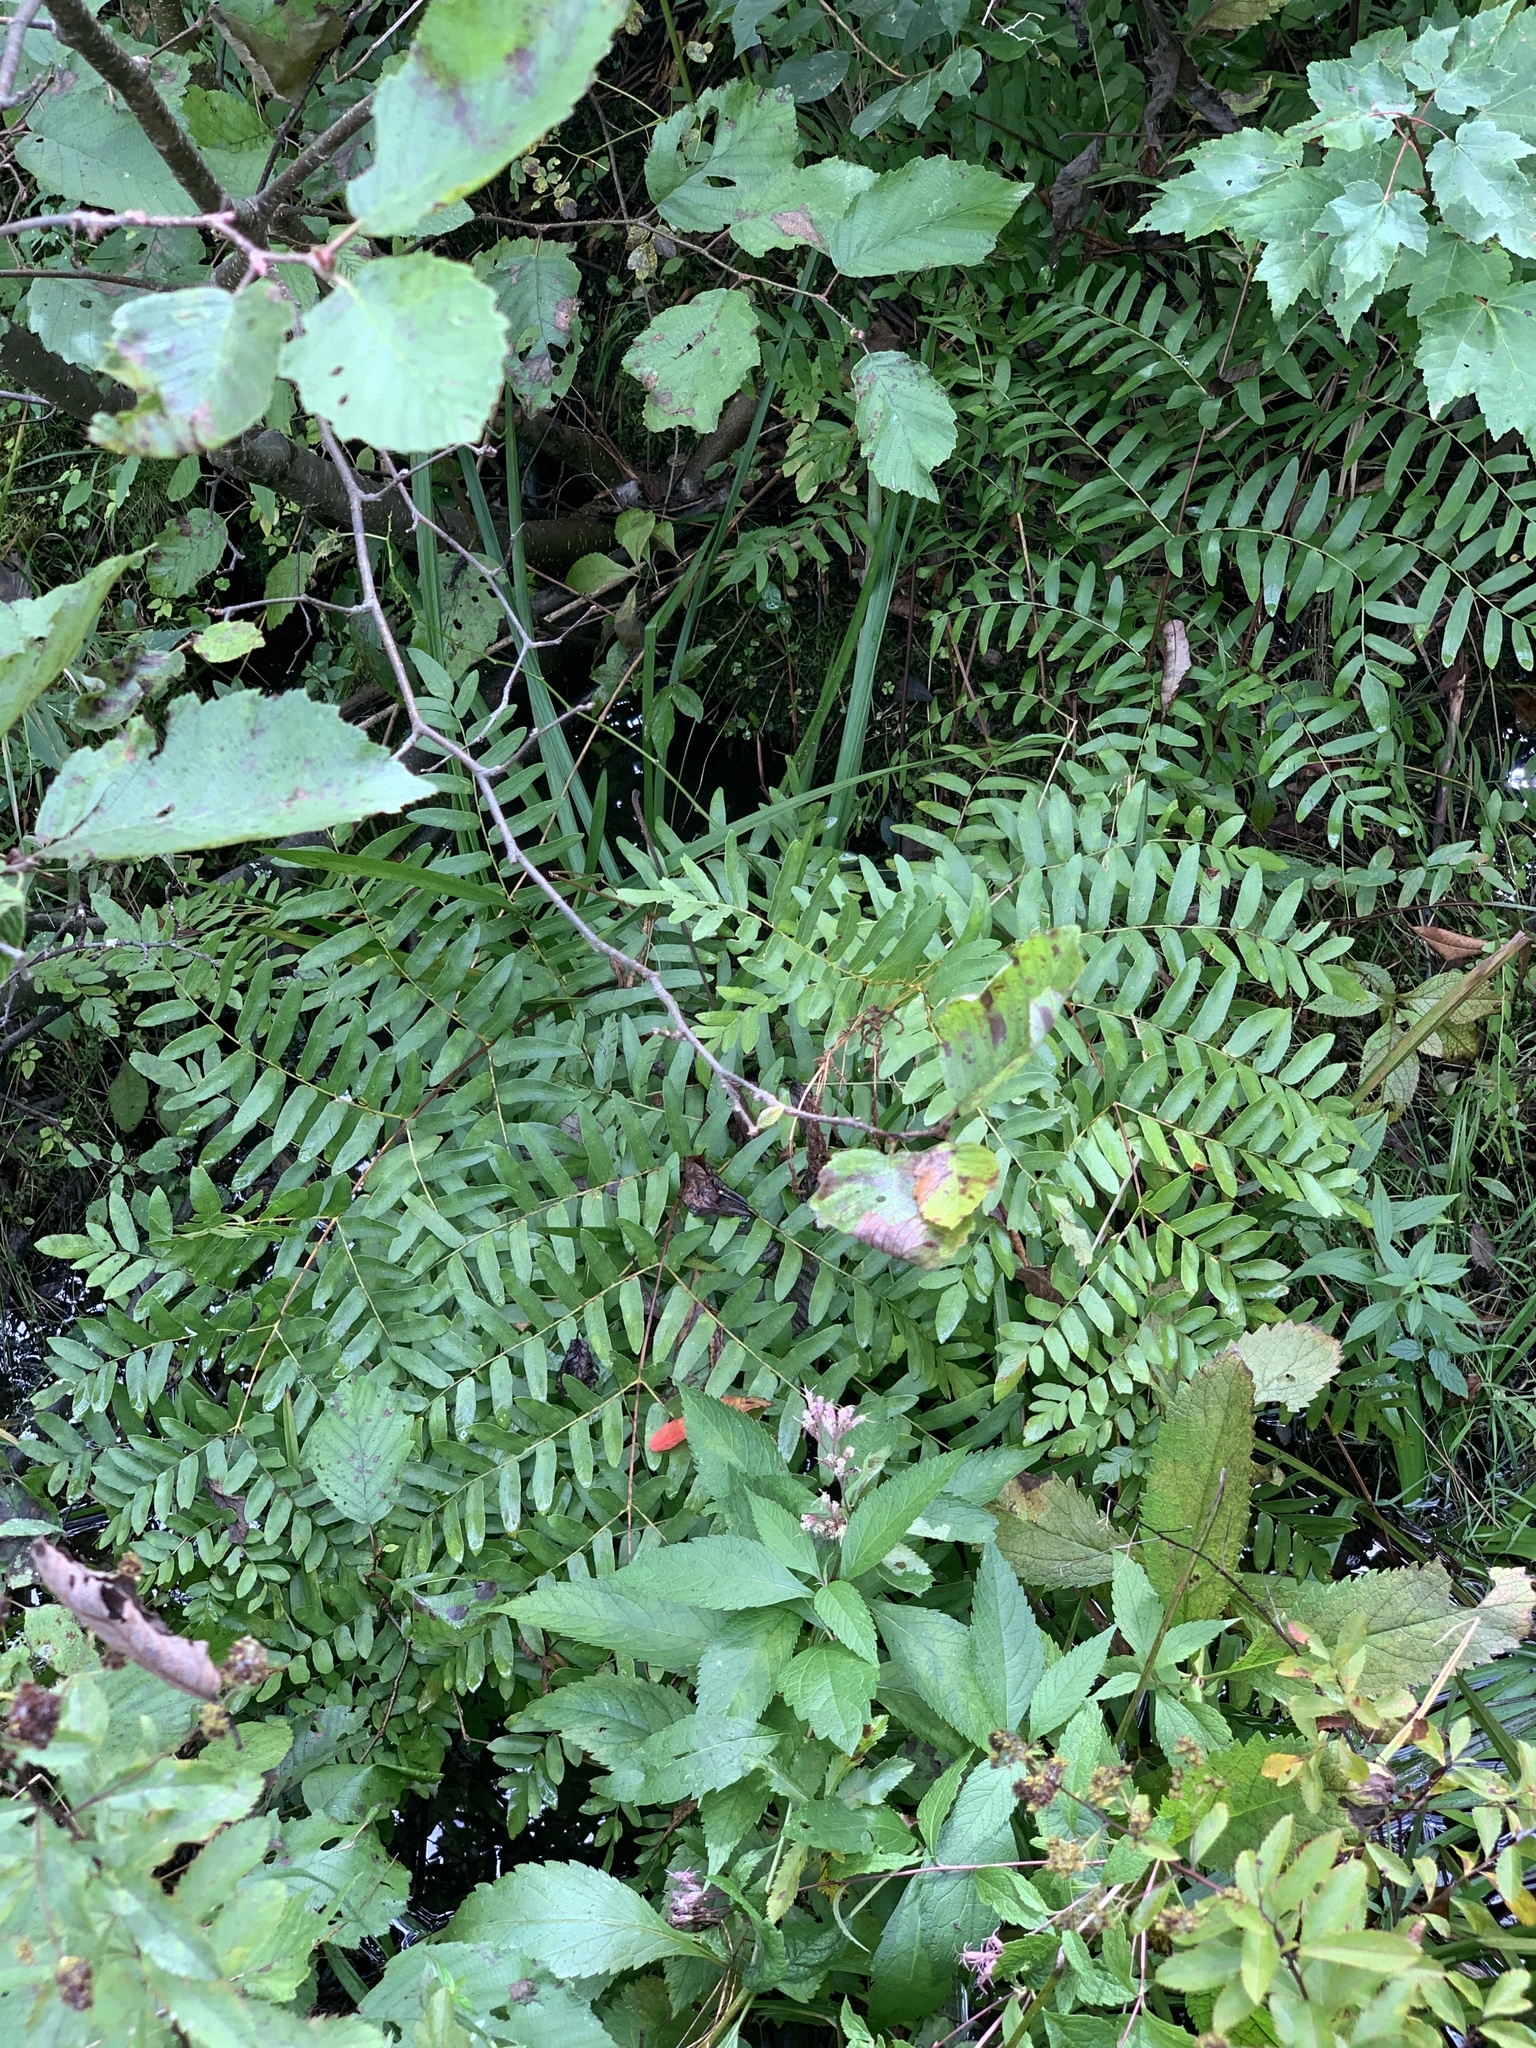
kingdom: Plantae
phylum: Tracheophyta
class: Polypodiopsida
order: Osmundales
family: Osmundaceae
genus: Osmunda
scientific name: Osmunda spectabilis
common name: American royal fern
